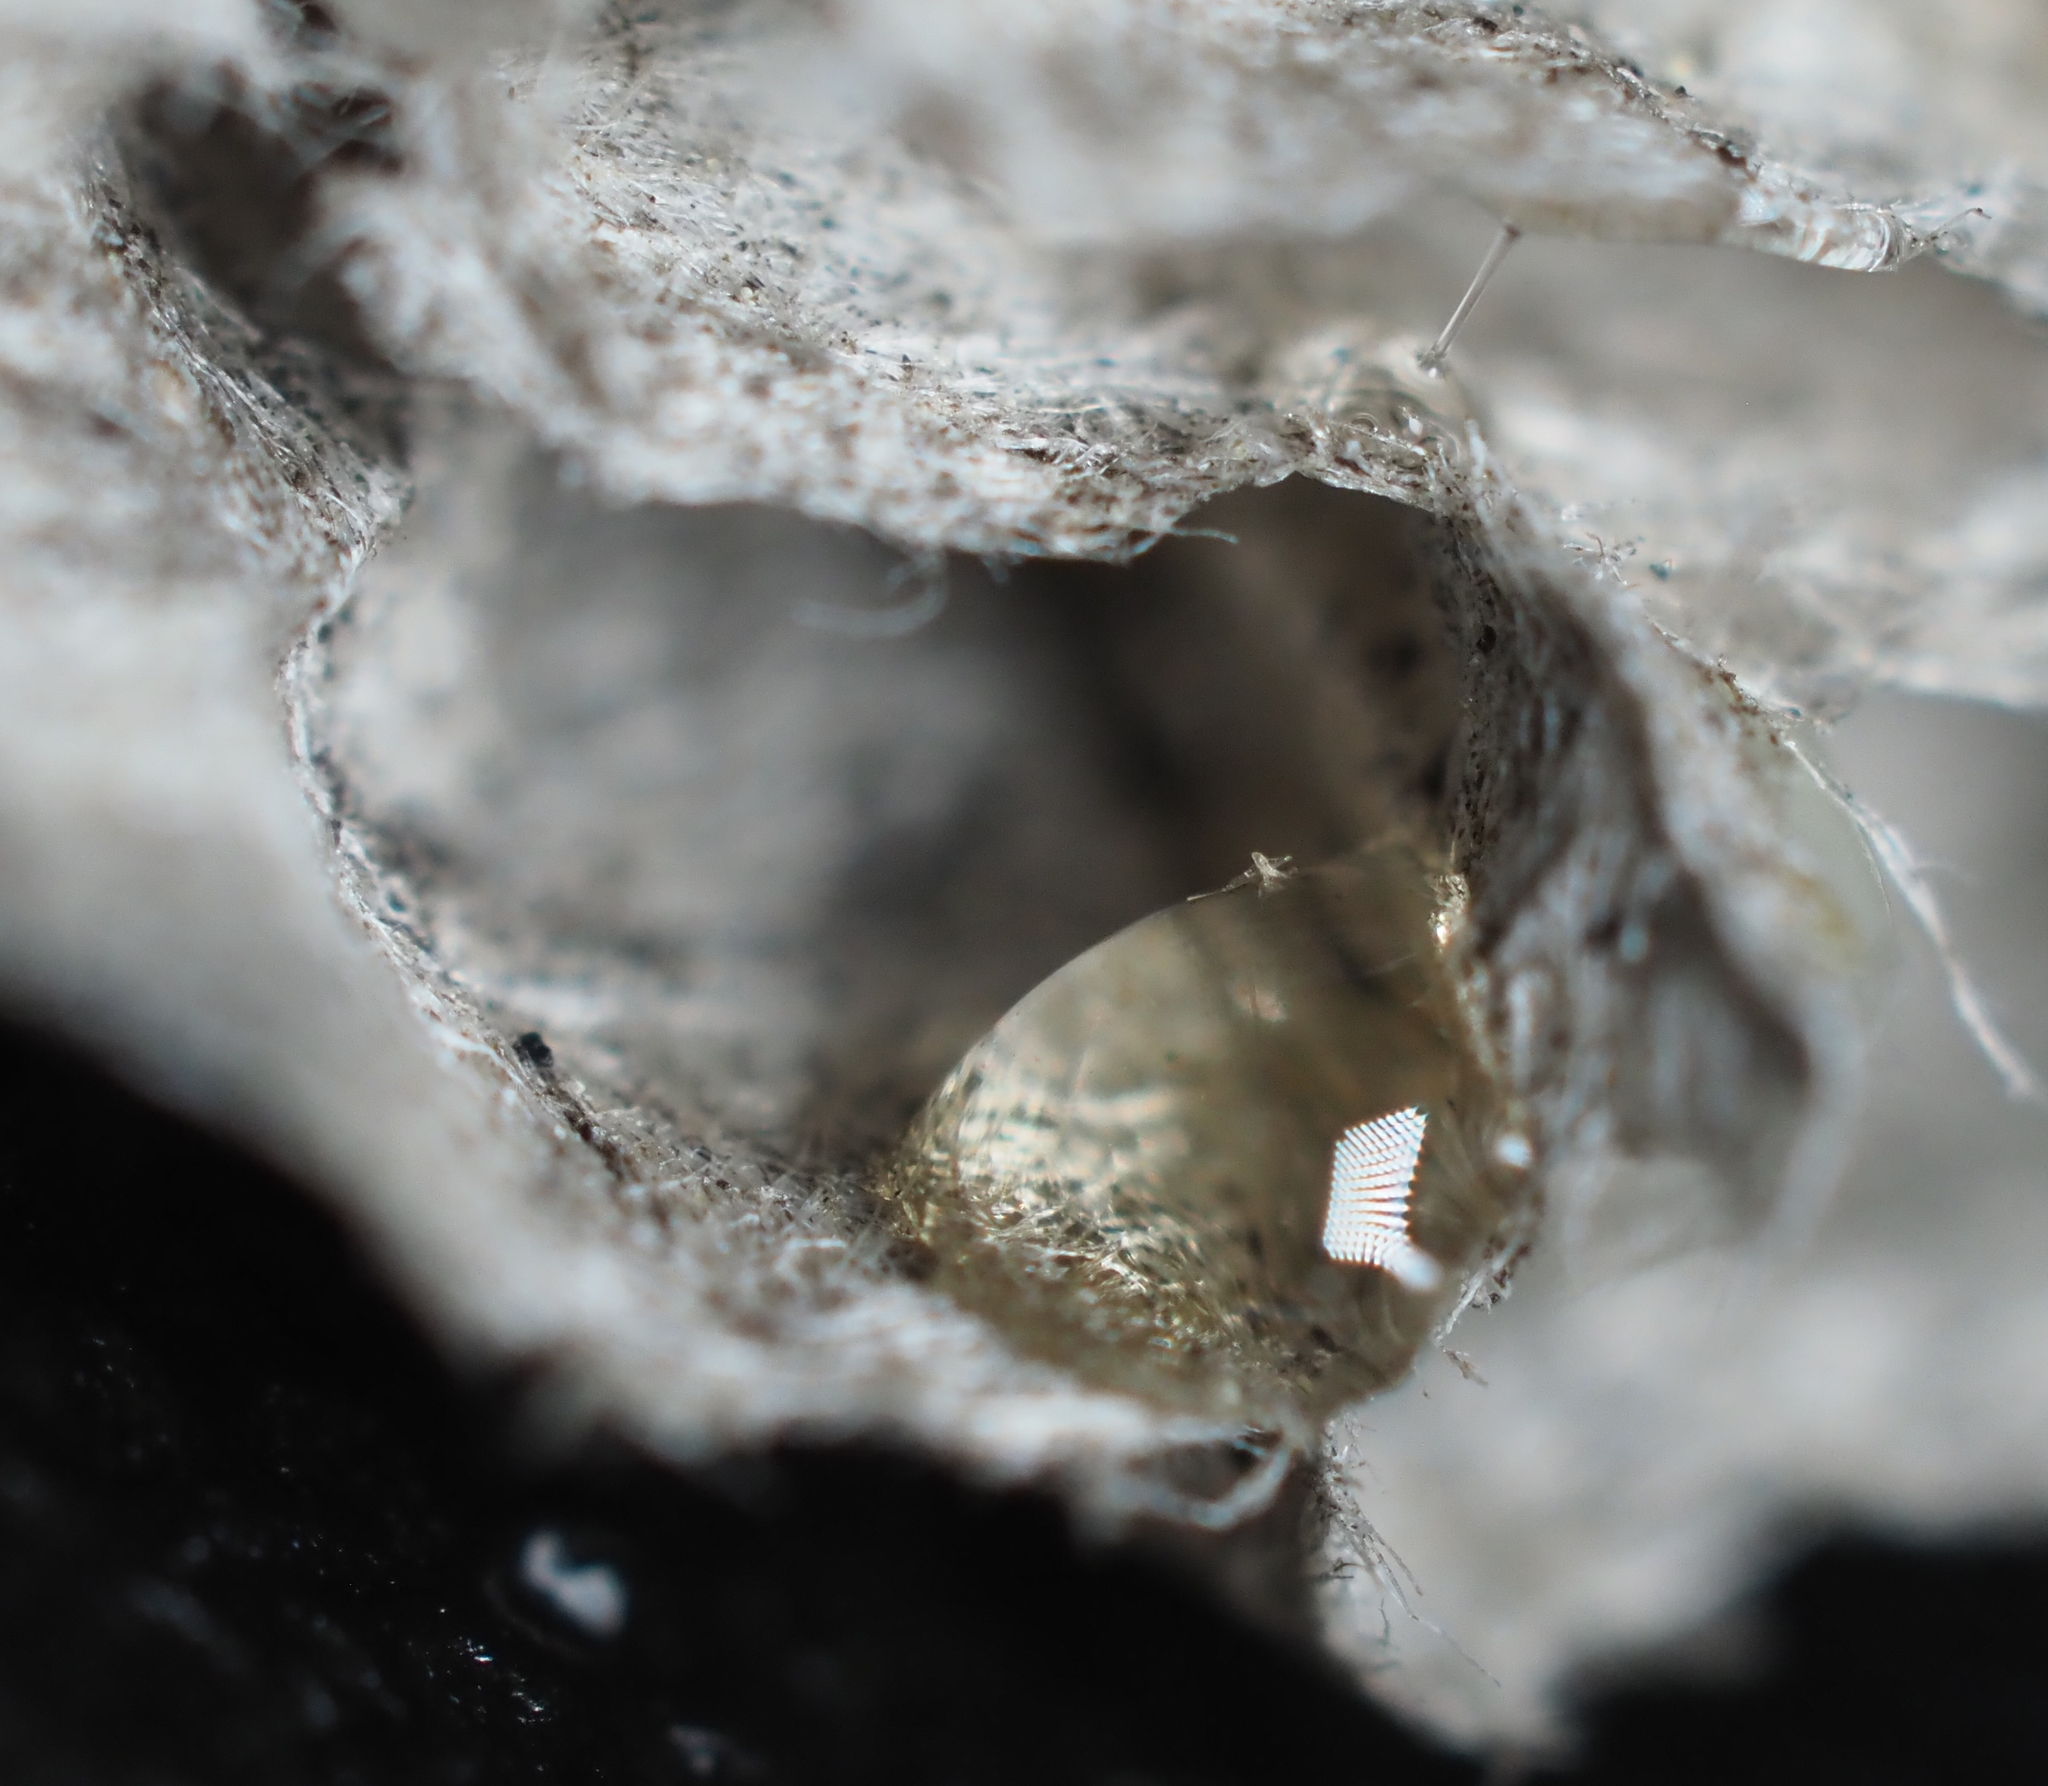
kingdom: Animalia
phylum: Arthropoda
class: Insecta
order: Hymenoptera
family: Eumenidae
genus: Polistes
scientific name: Polistes metricus
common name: Metric paper wasp
